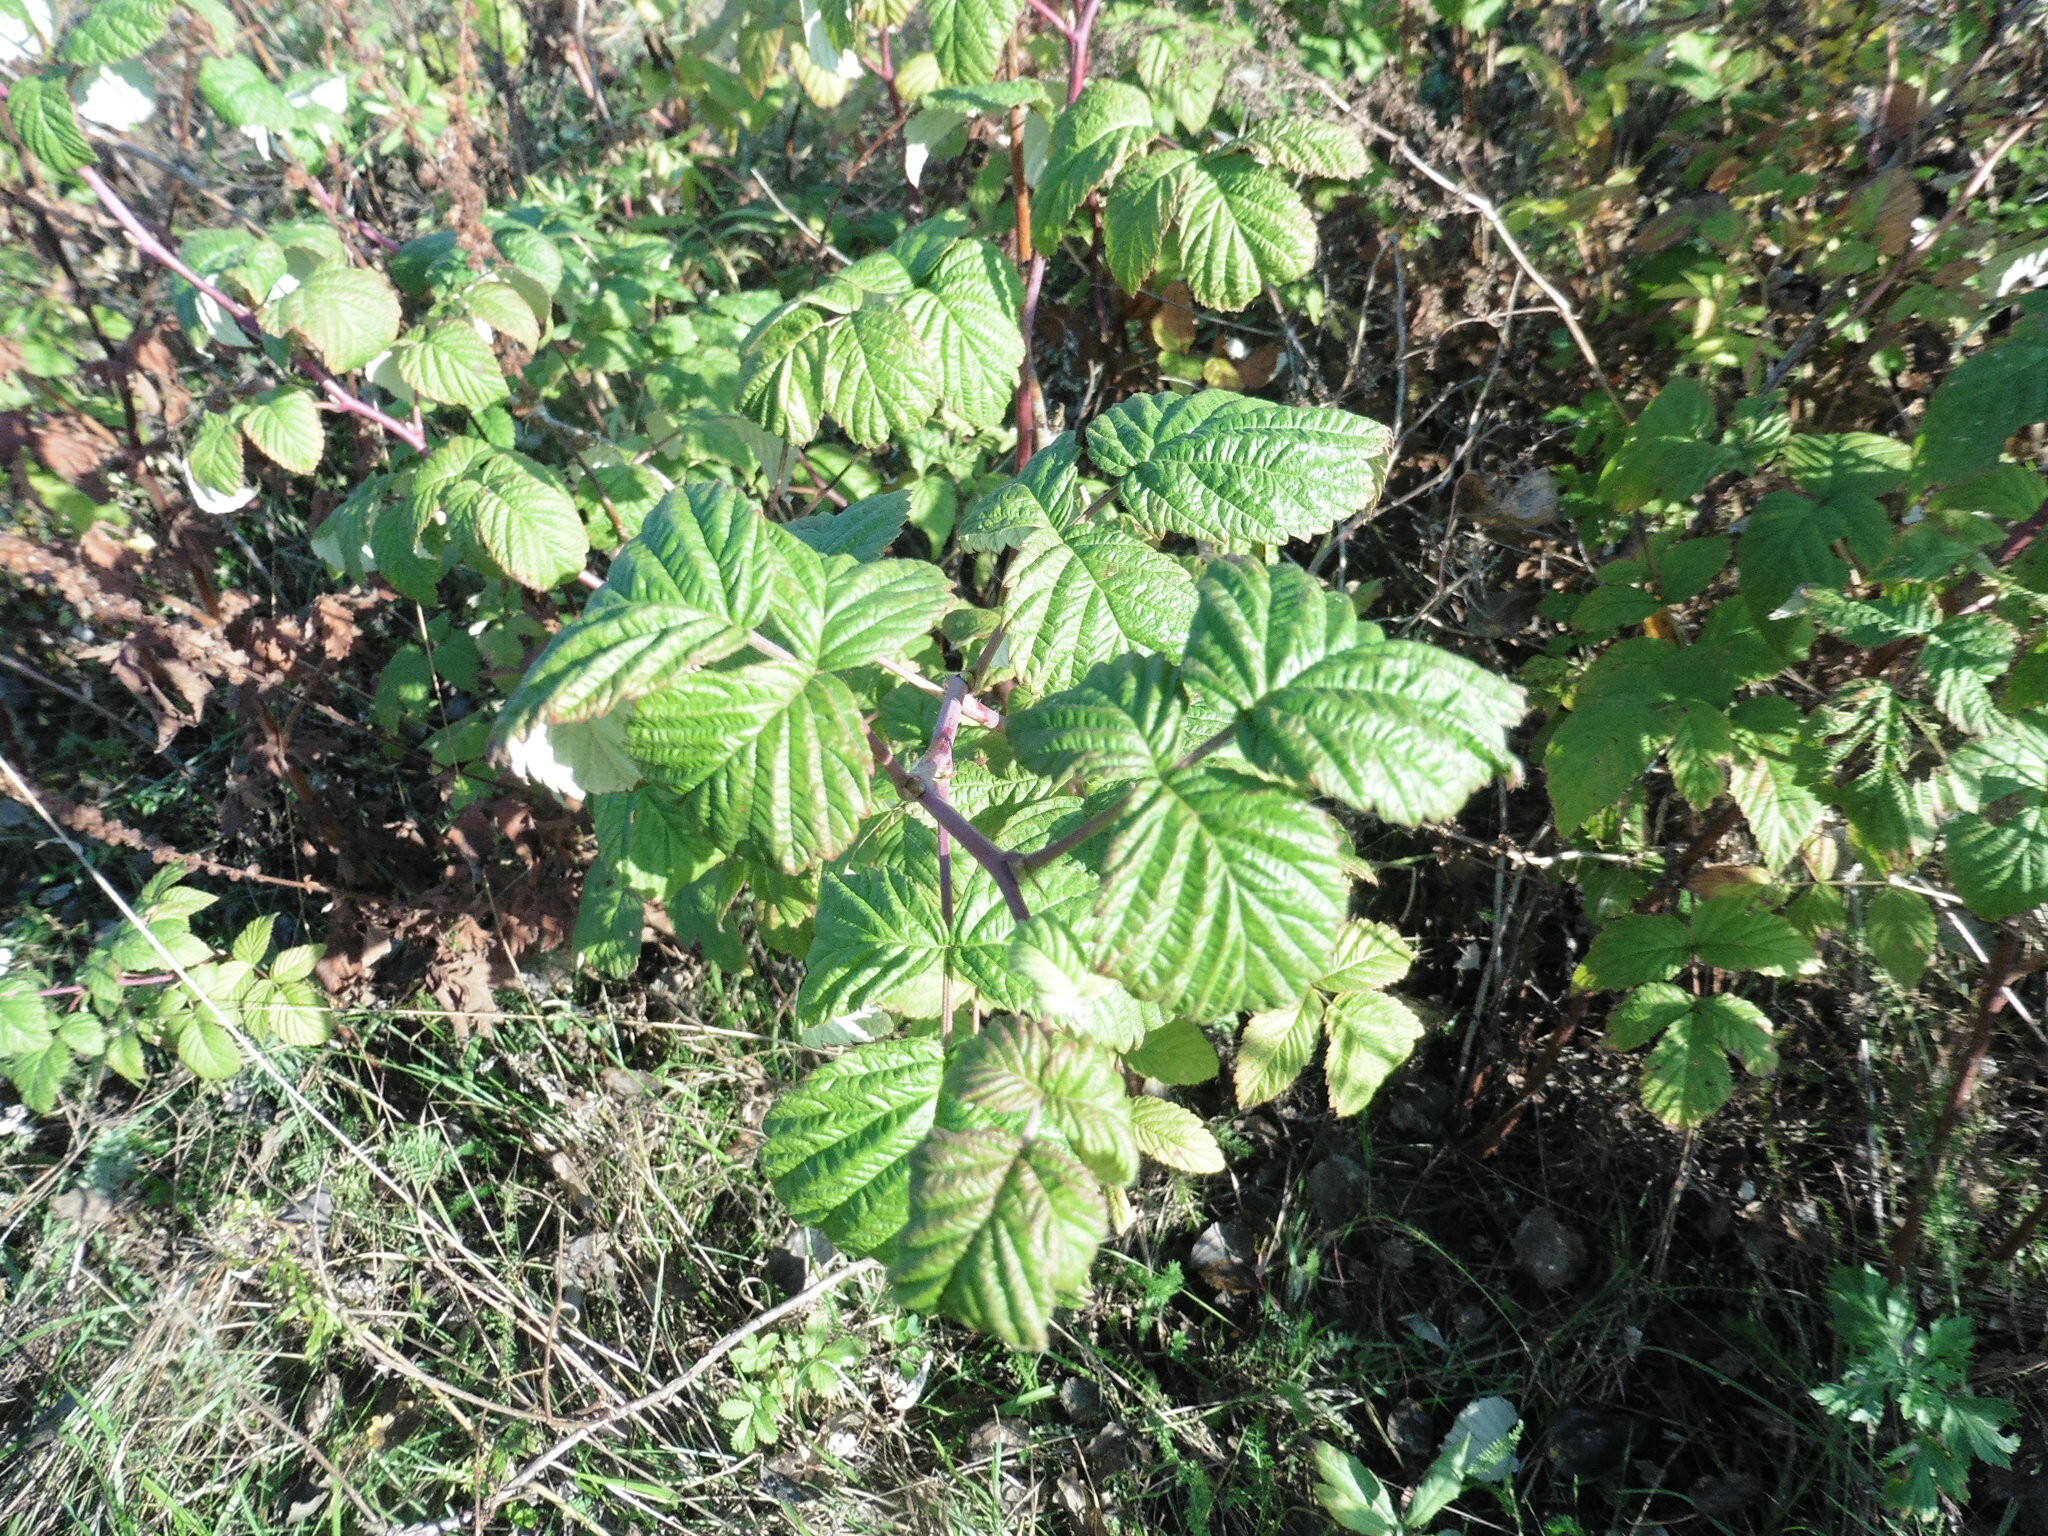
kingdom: Plantae
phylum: Tracheophyta
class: Magnoliopsida
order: Rosales
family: Rosaceae
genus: Rubus
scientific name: Rubus idaeus
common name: Raspberry
